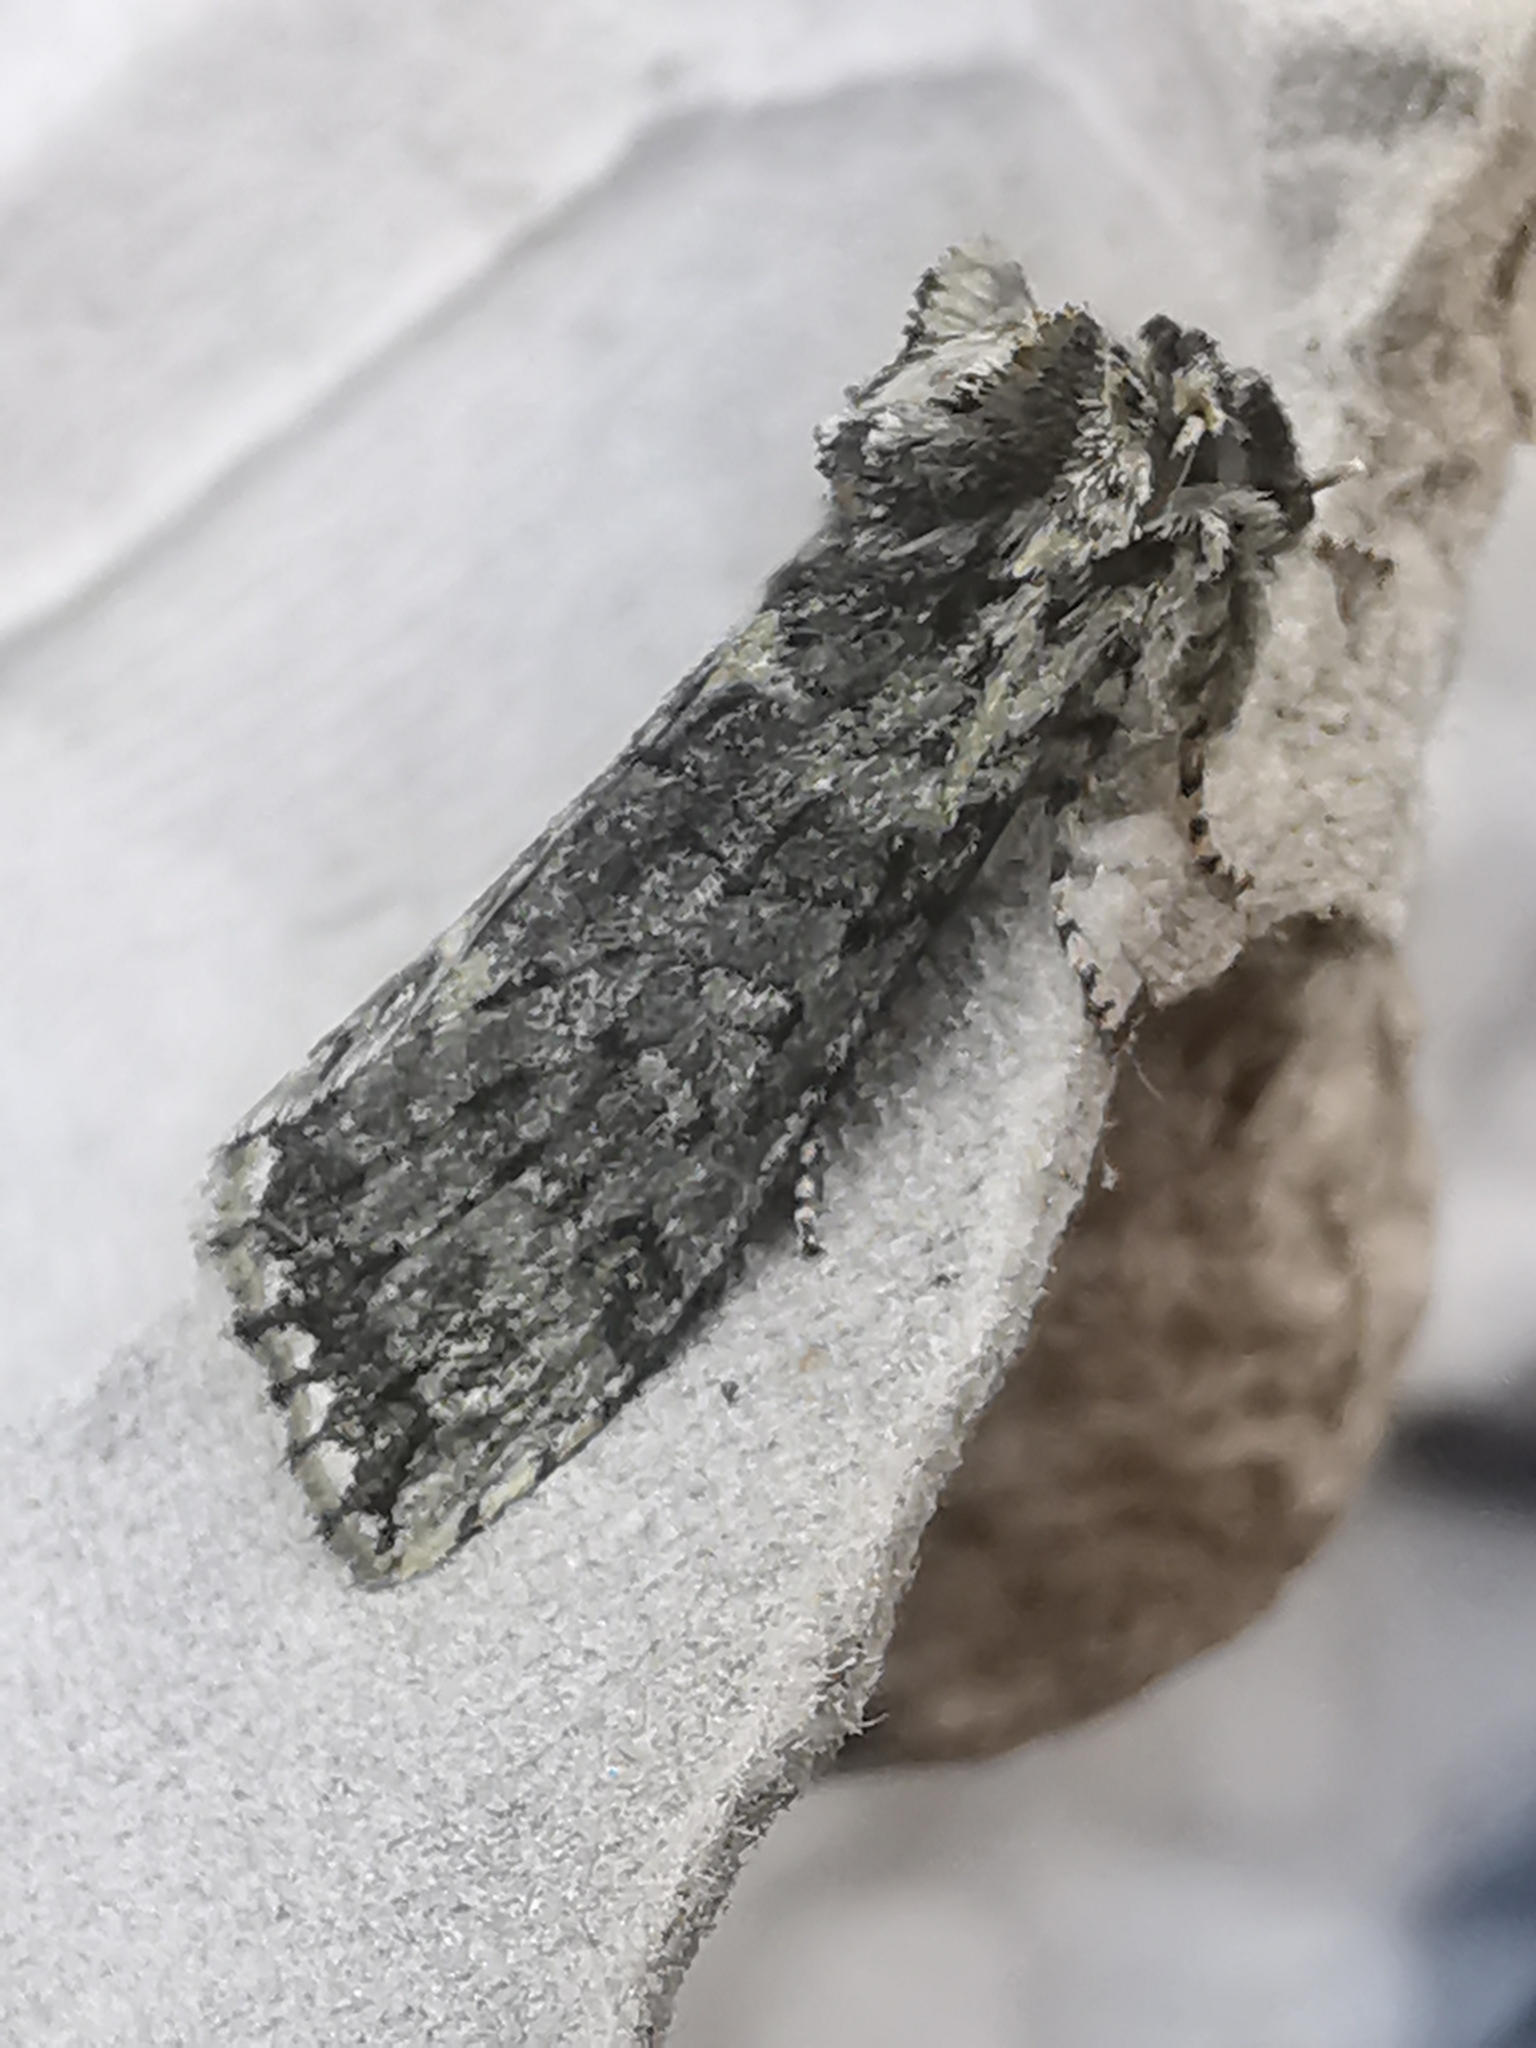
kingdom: Animalia
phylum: Arthropoda
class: Insecta
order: Lepidoptera
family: Drepanidae
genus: Polyploca
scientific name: Polyploca ridens
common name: Frosted green
